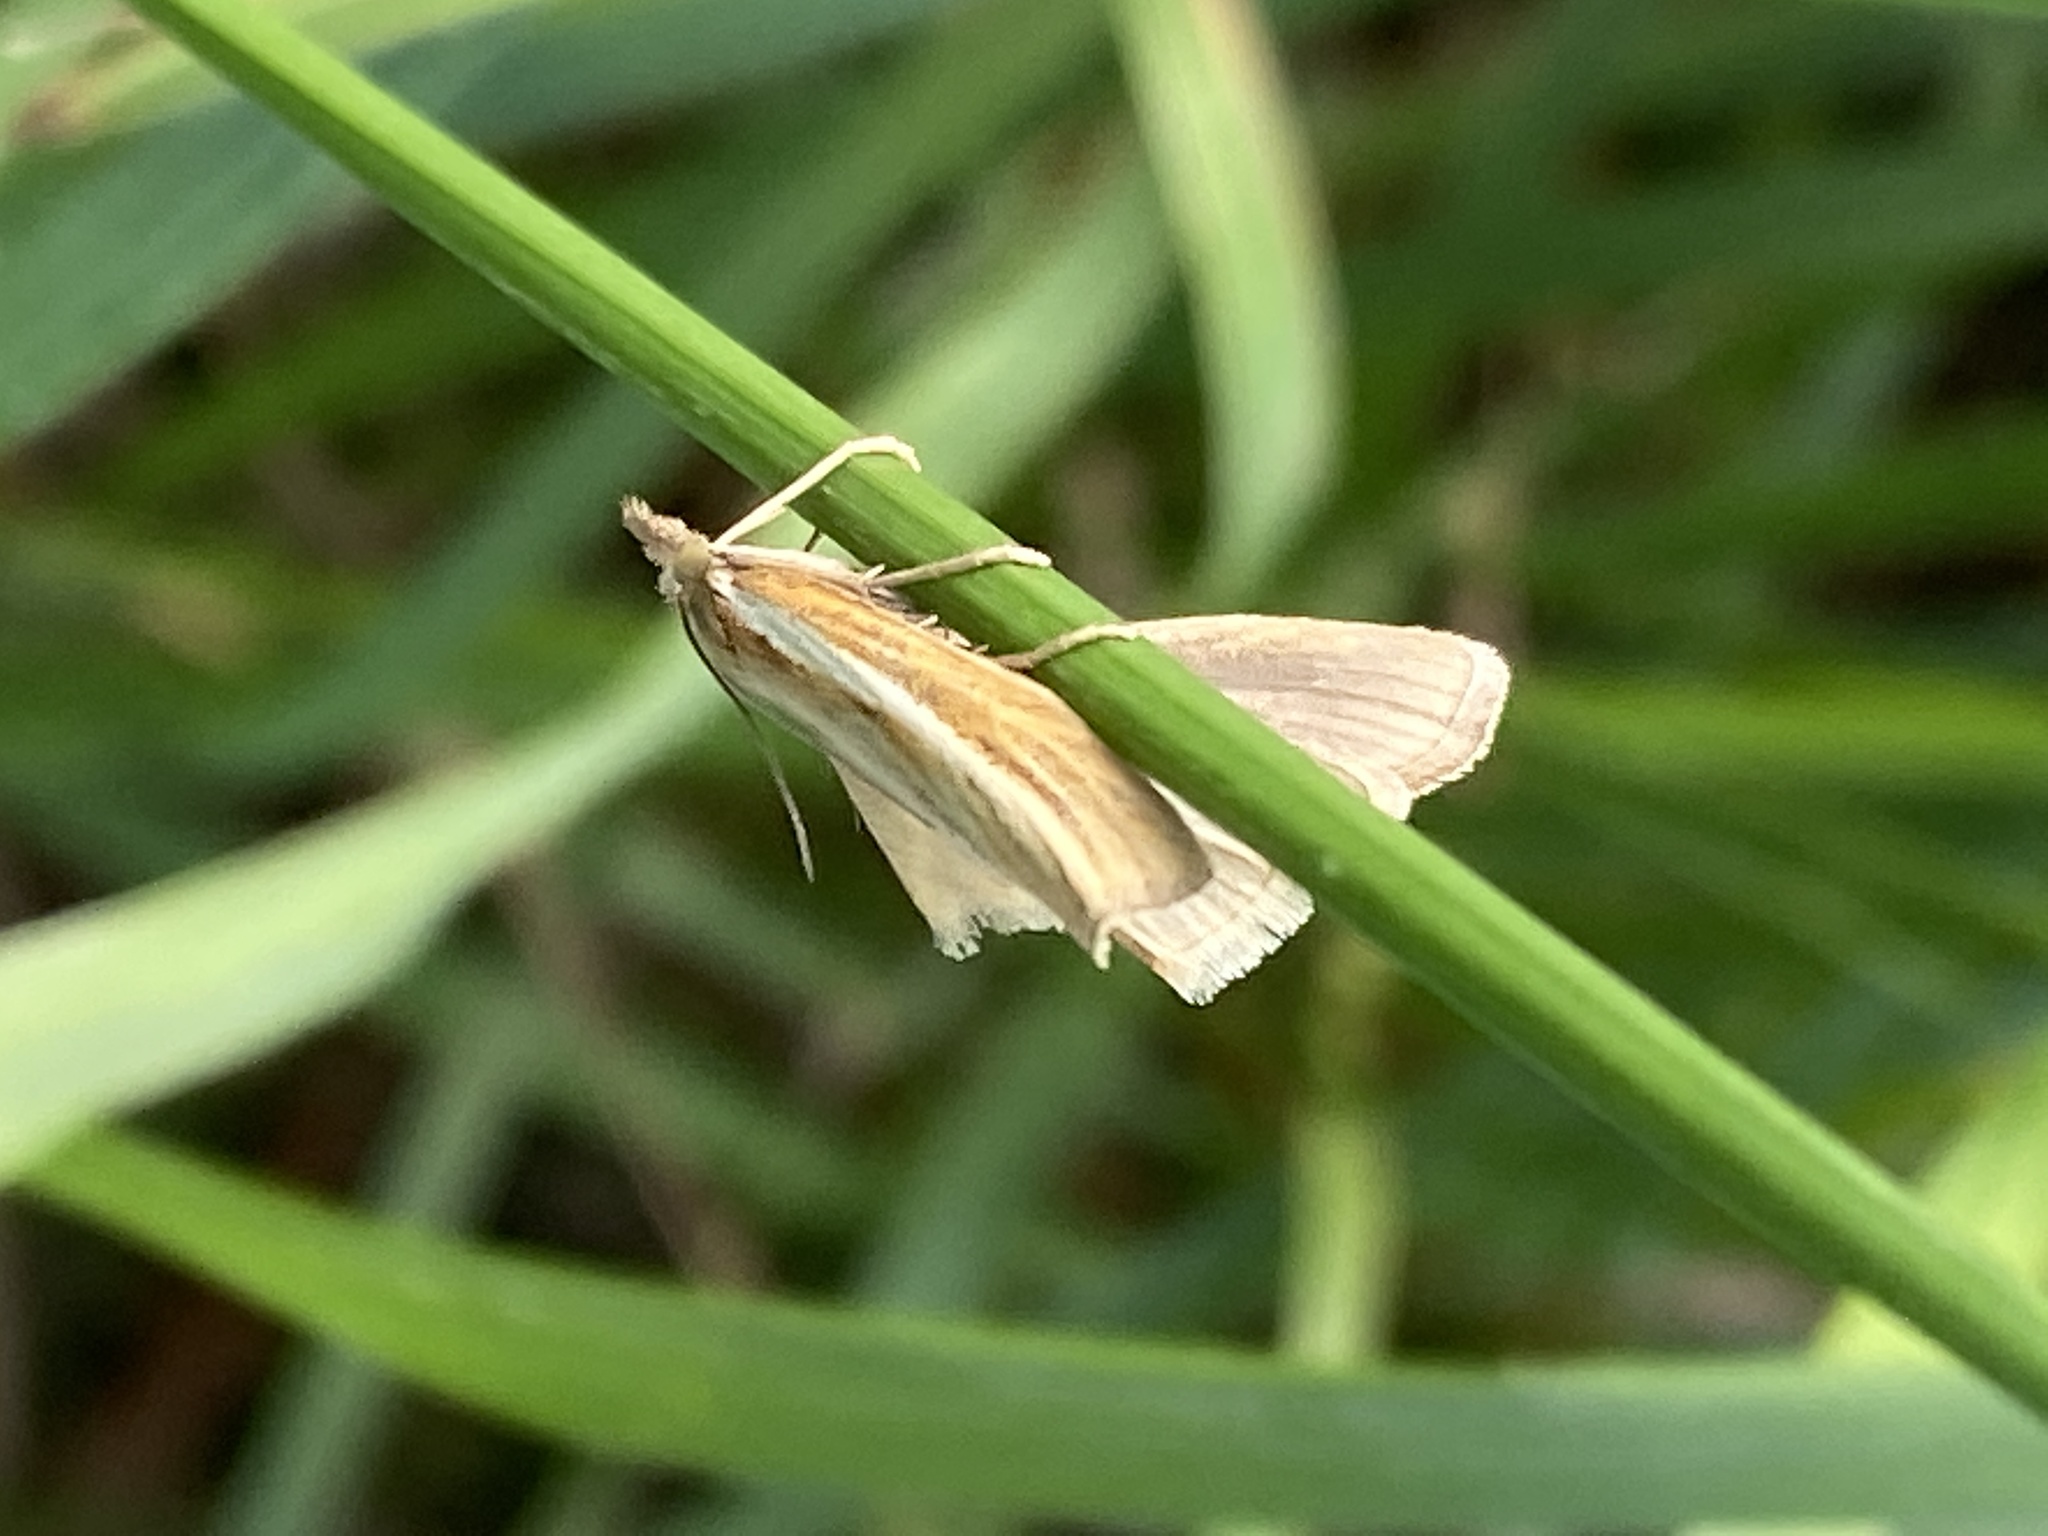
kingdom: Animalia
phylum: Arthropoda
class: Insecta
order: Lepidoptera
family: Crambidae
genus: Agriphila
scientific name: Agriphila straminella
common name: Straw grass-veneer
